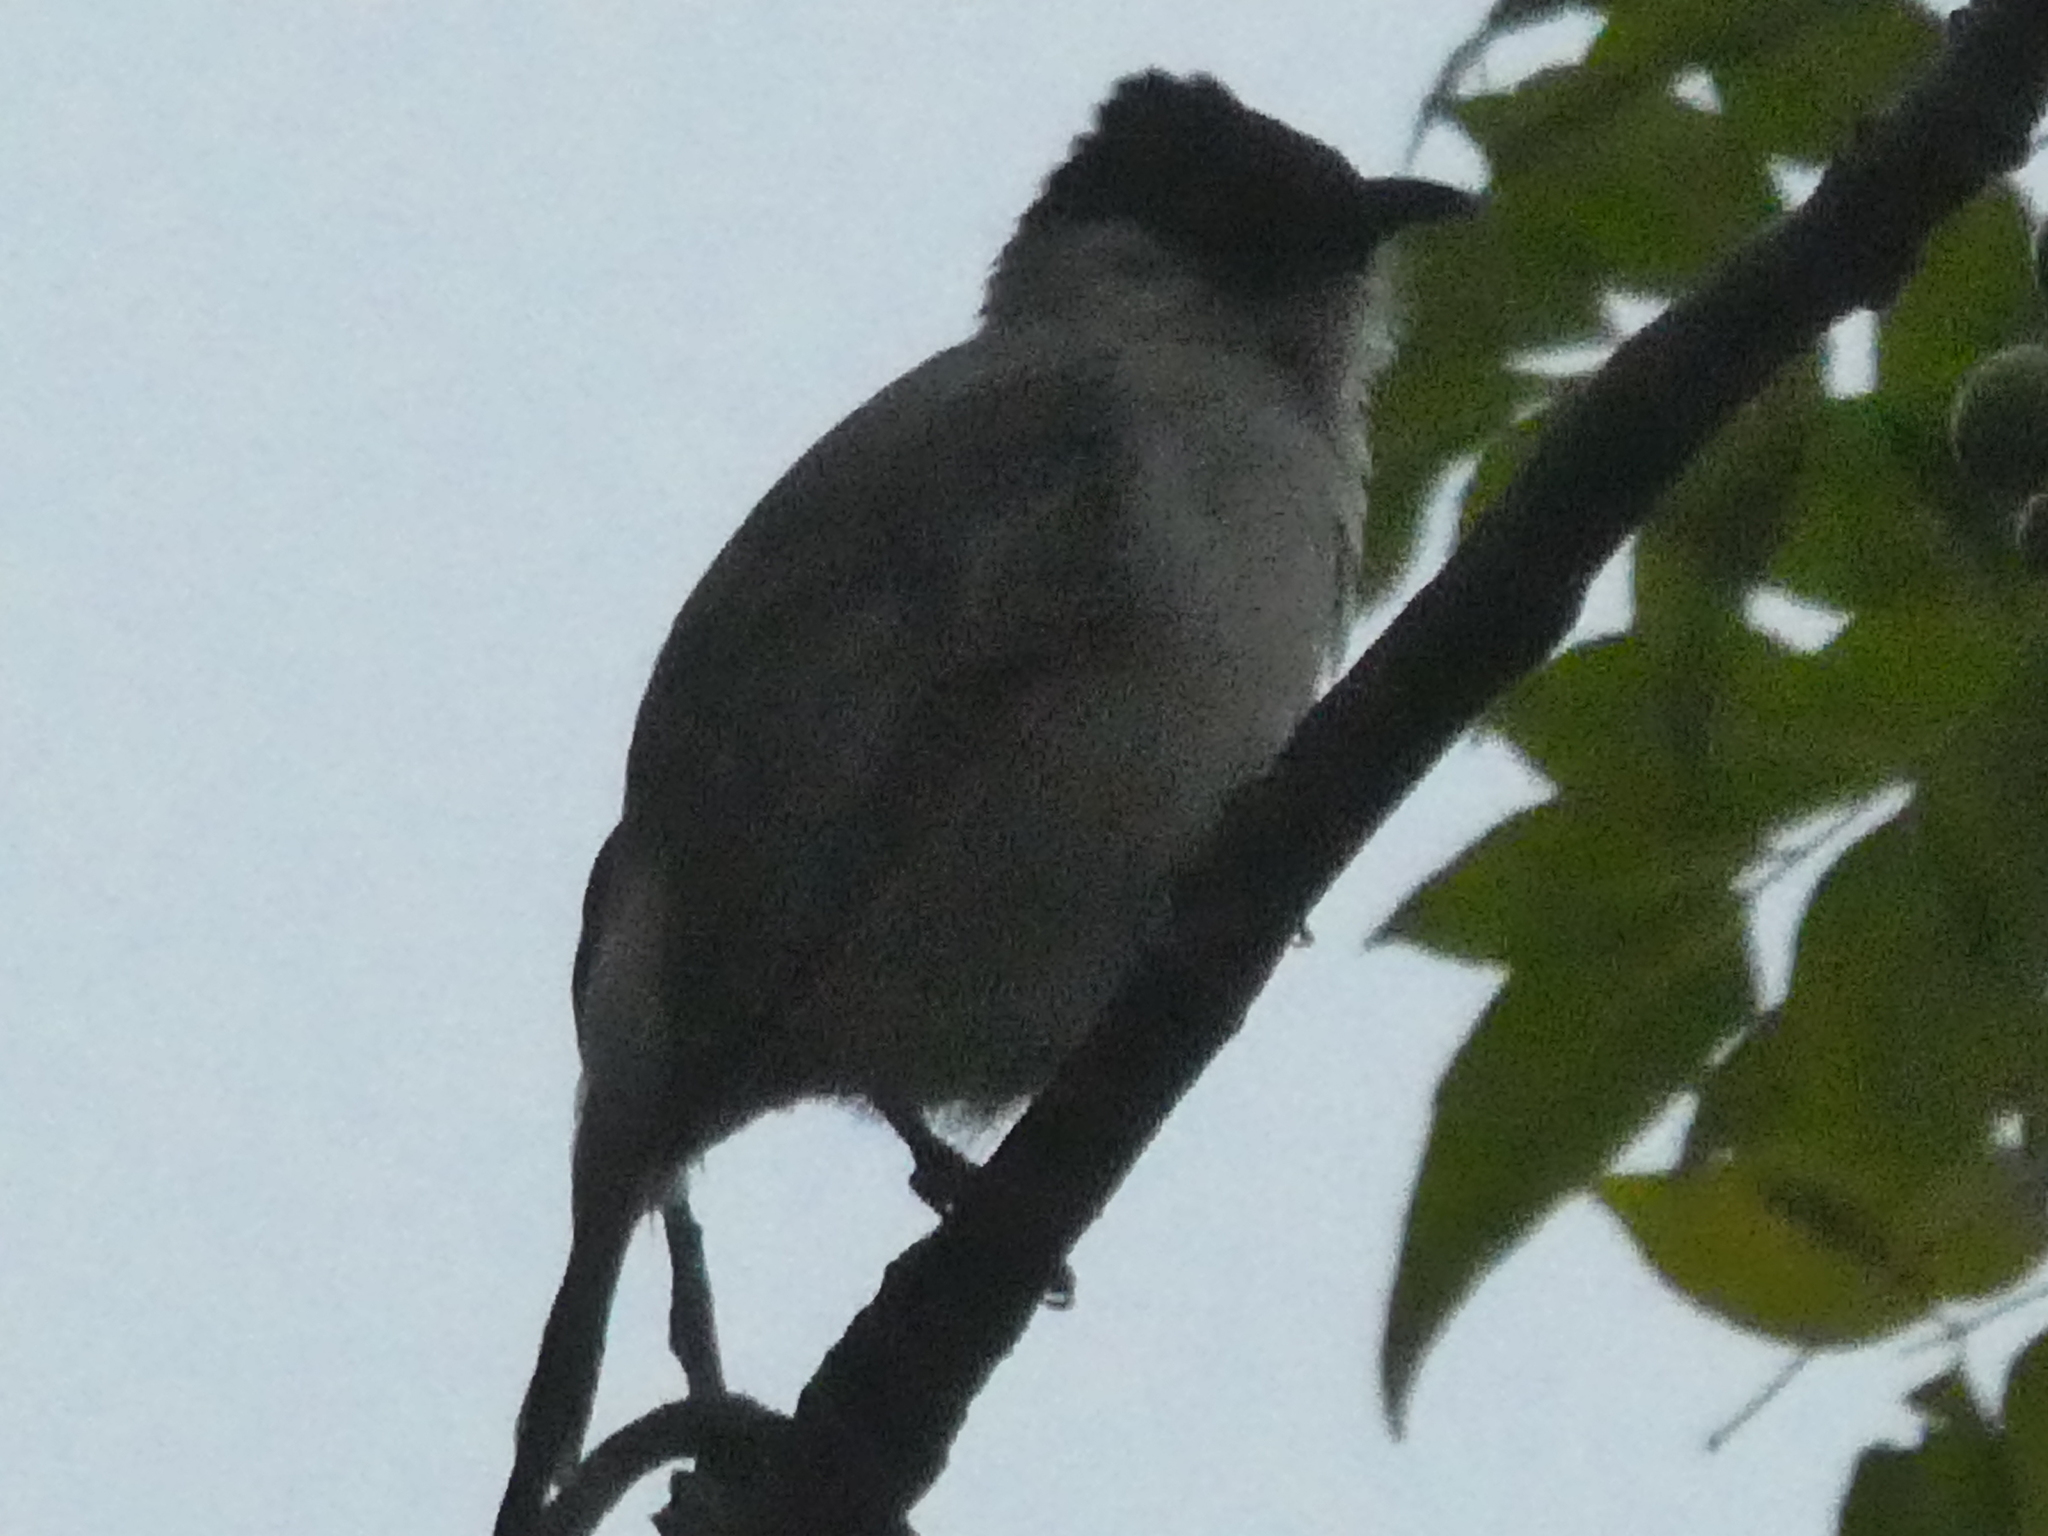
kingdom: Animalia
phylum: Chordata
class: Aves
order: Passeriformes
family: Pycnonotidae
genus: Pycnonotus
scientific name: Pycnonotus aurigaster
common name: Sooty-headed bulbul
